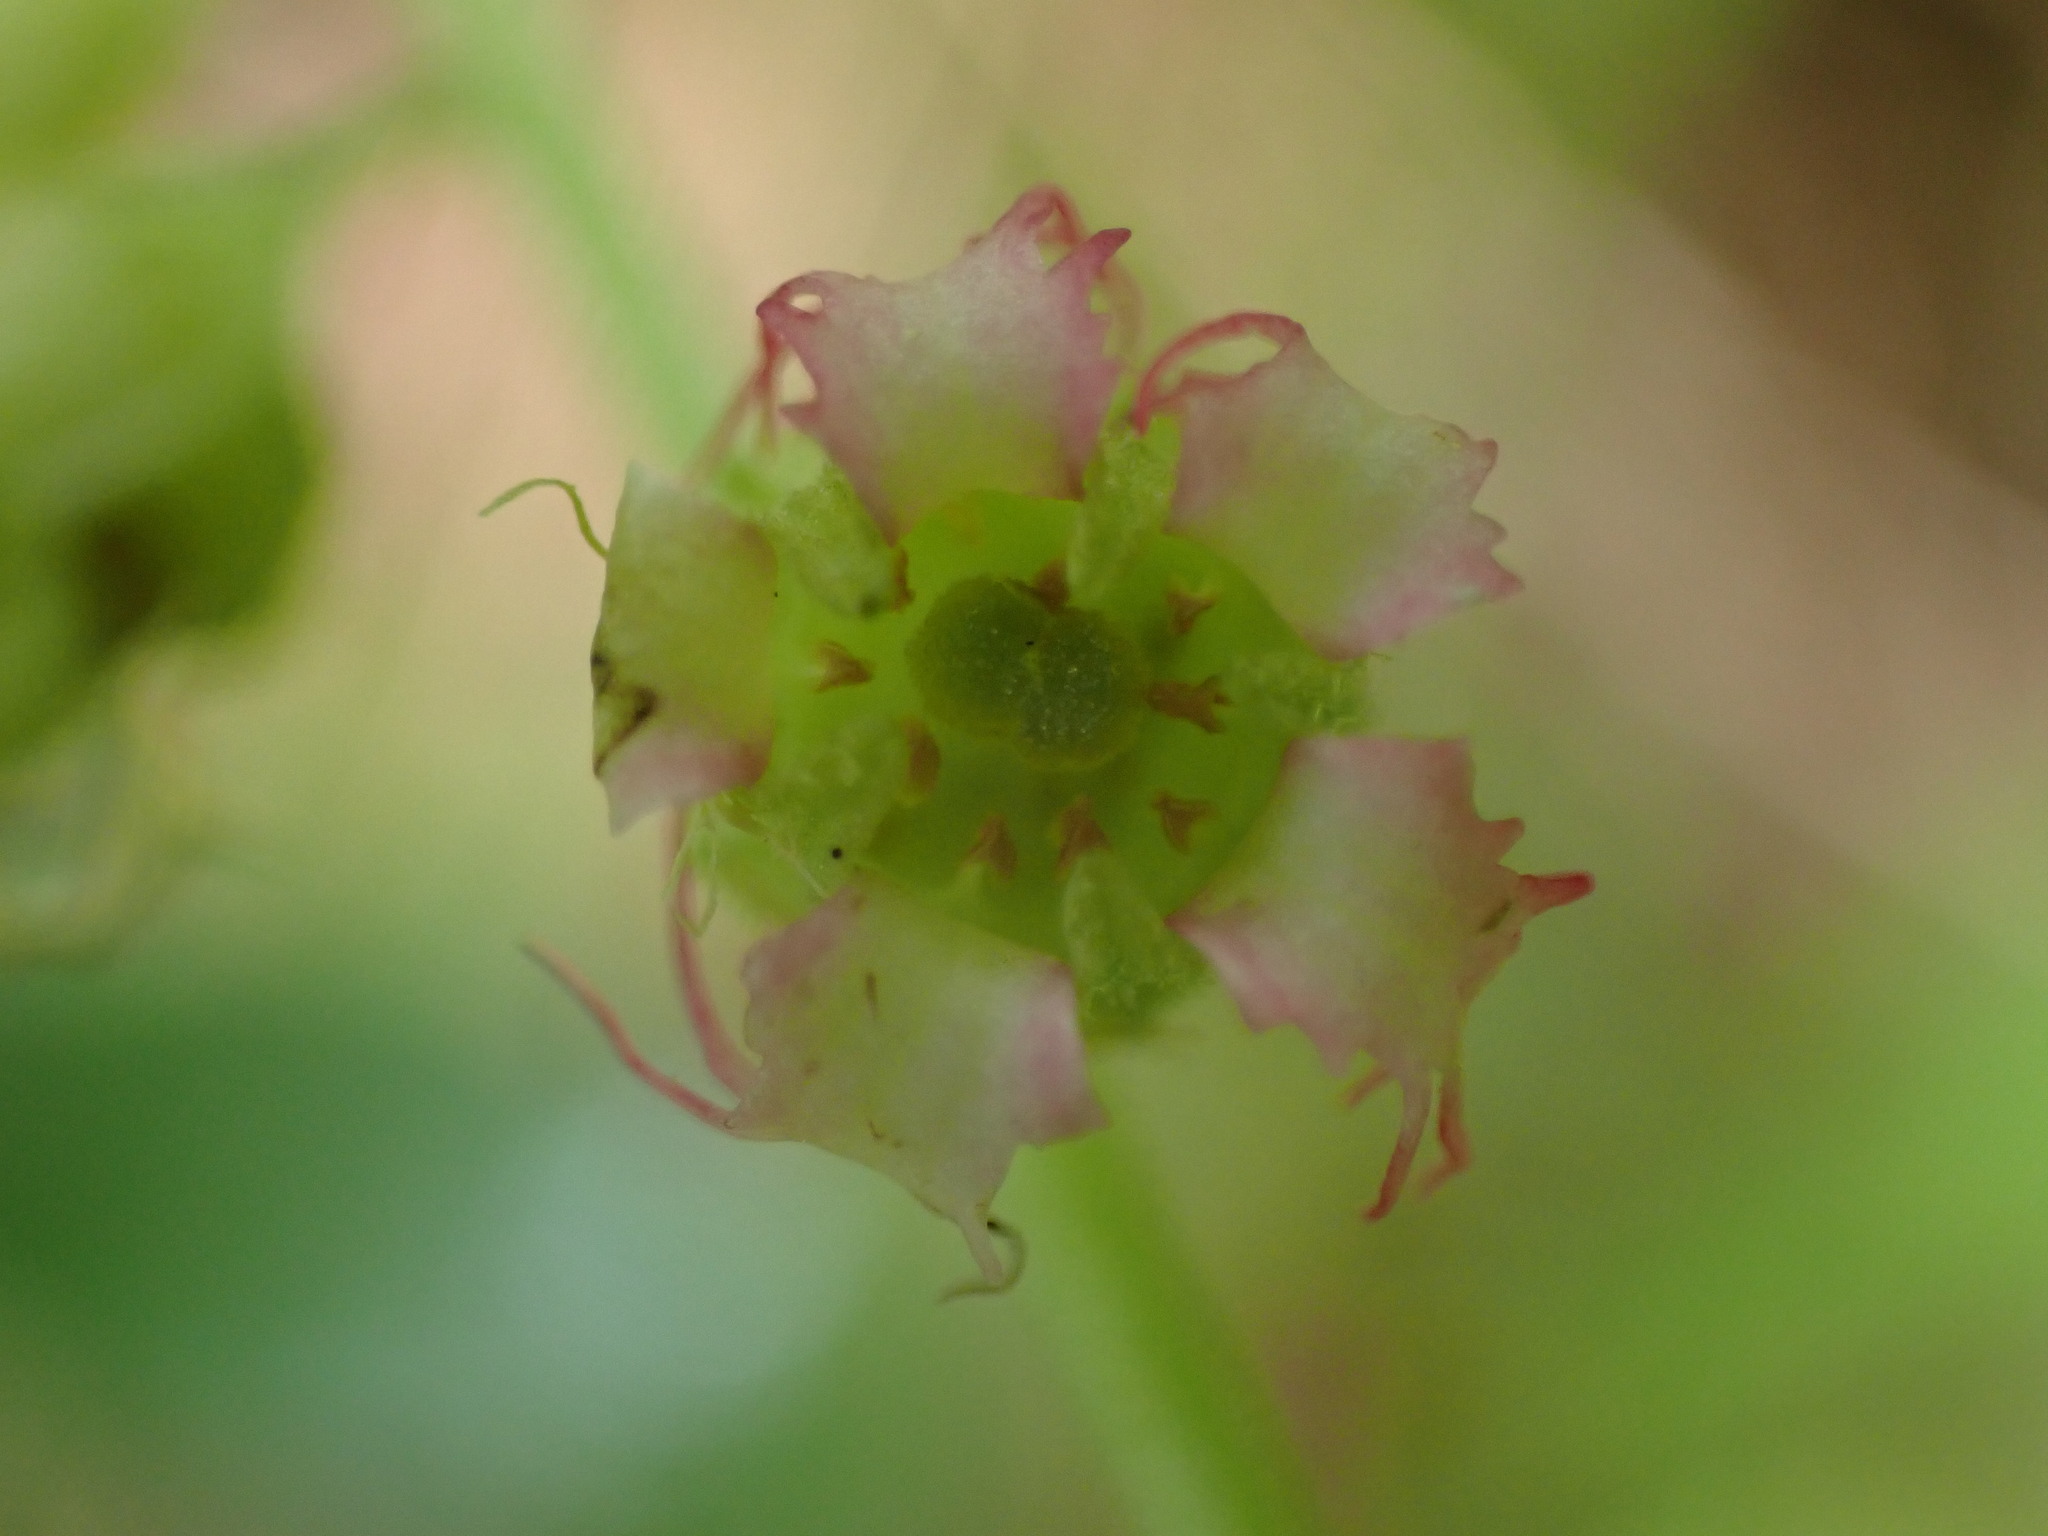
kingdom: Plantae
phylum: Tracheophyta
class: Magnoliopsida
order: Saxifragales
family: Saxifragaceae
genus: Tellima
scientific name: Tellima grandiflora
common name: Fringecups
